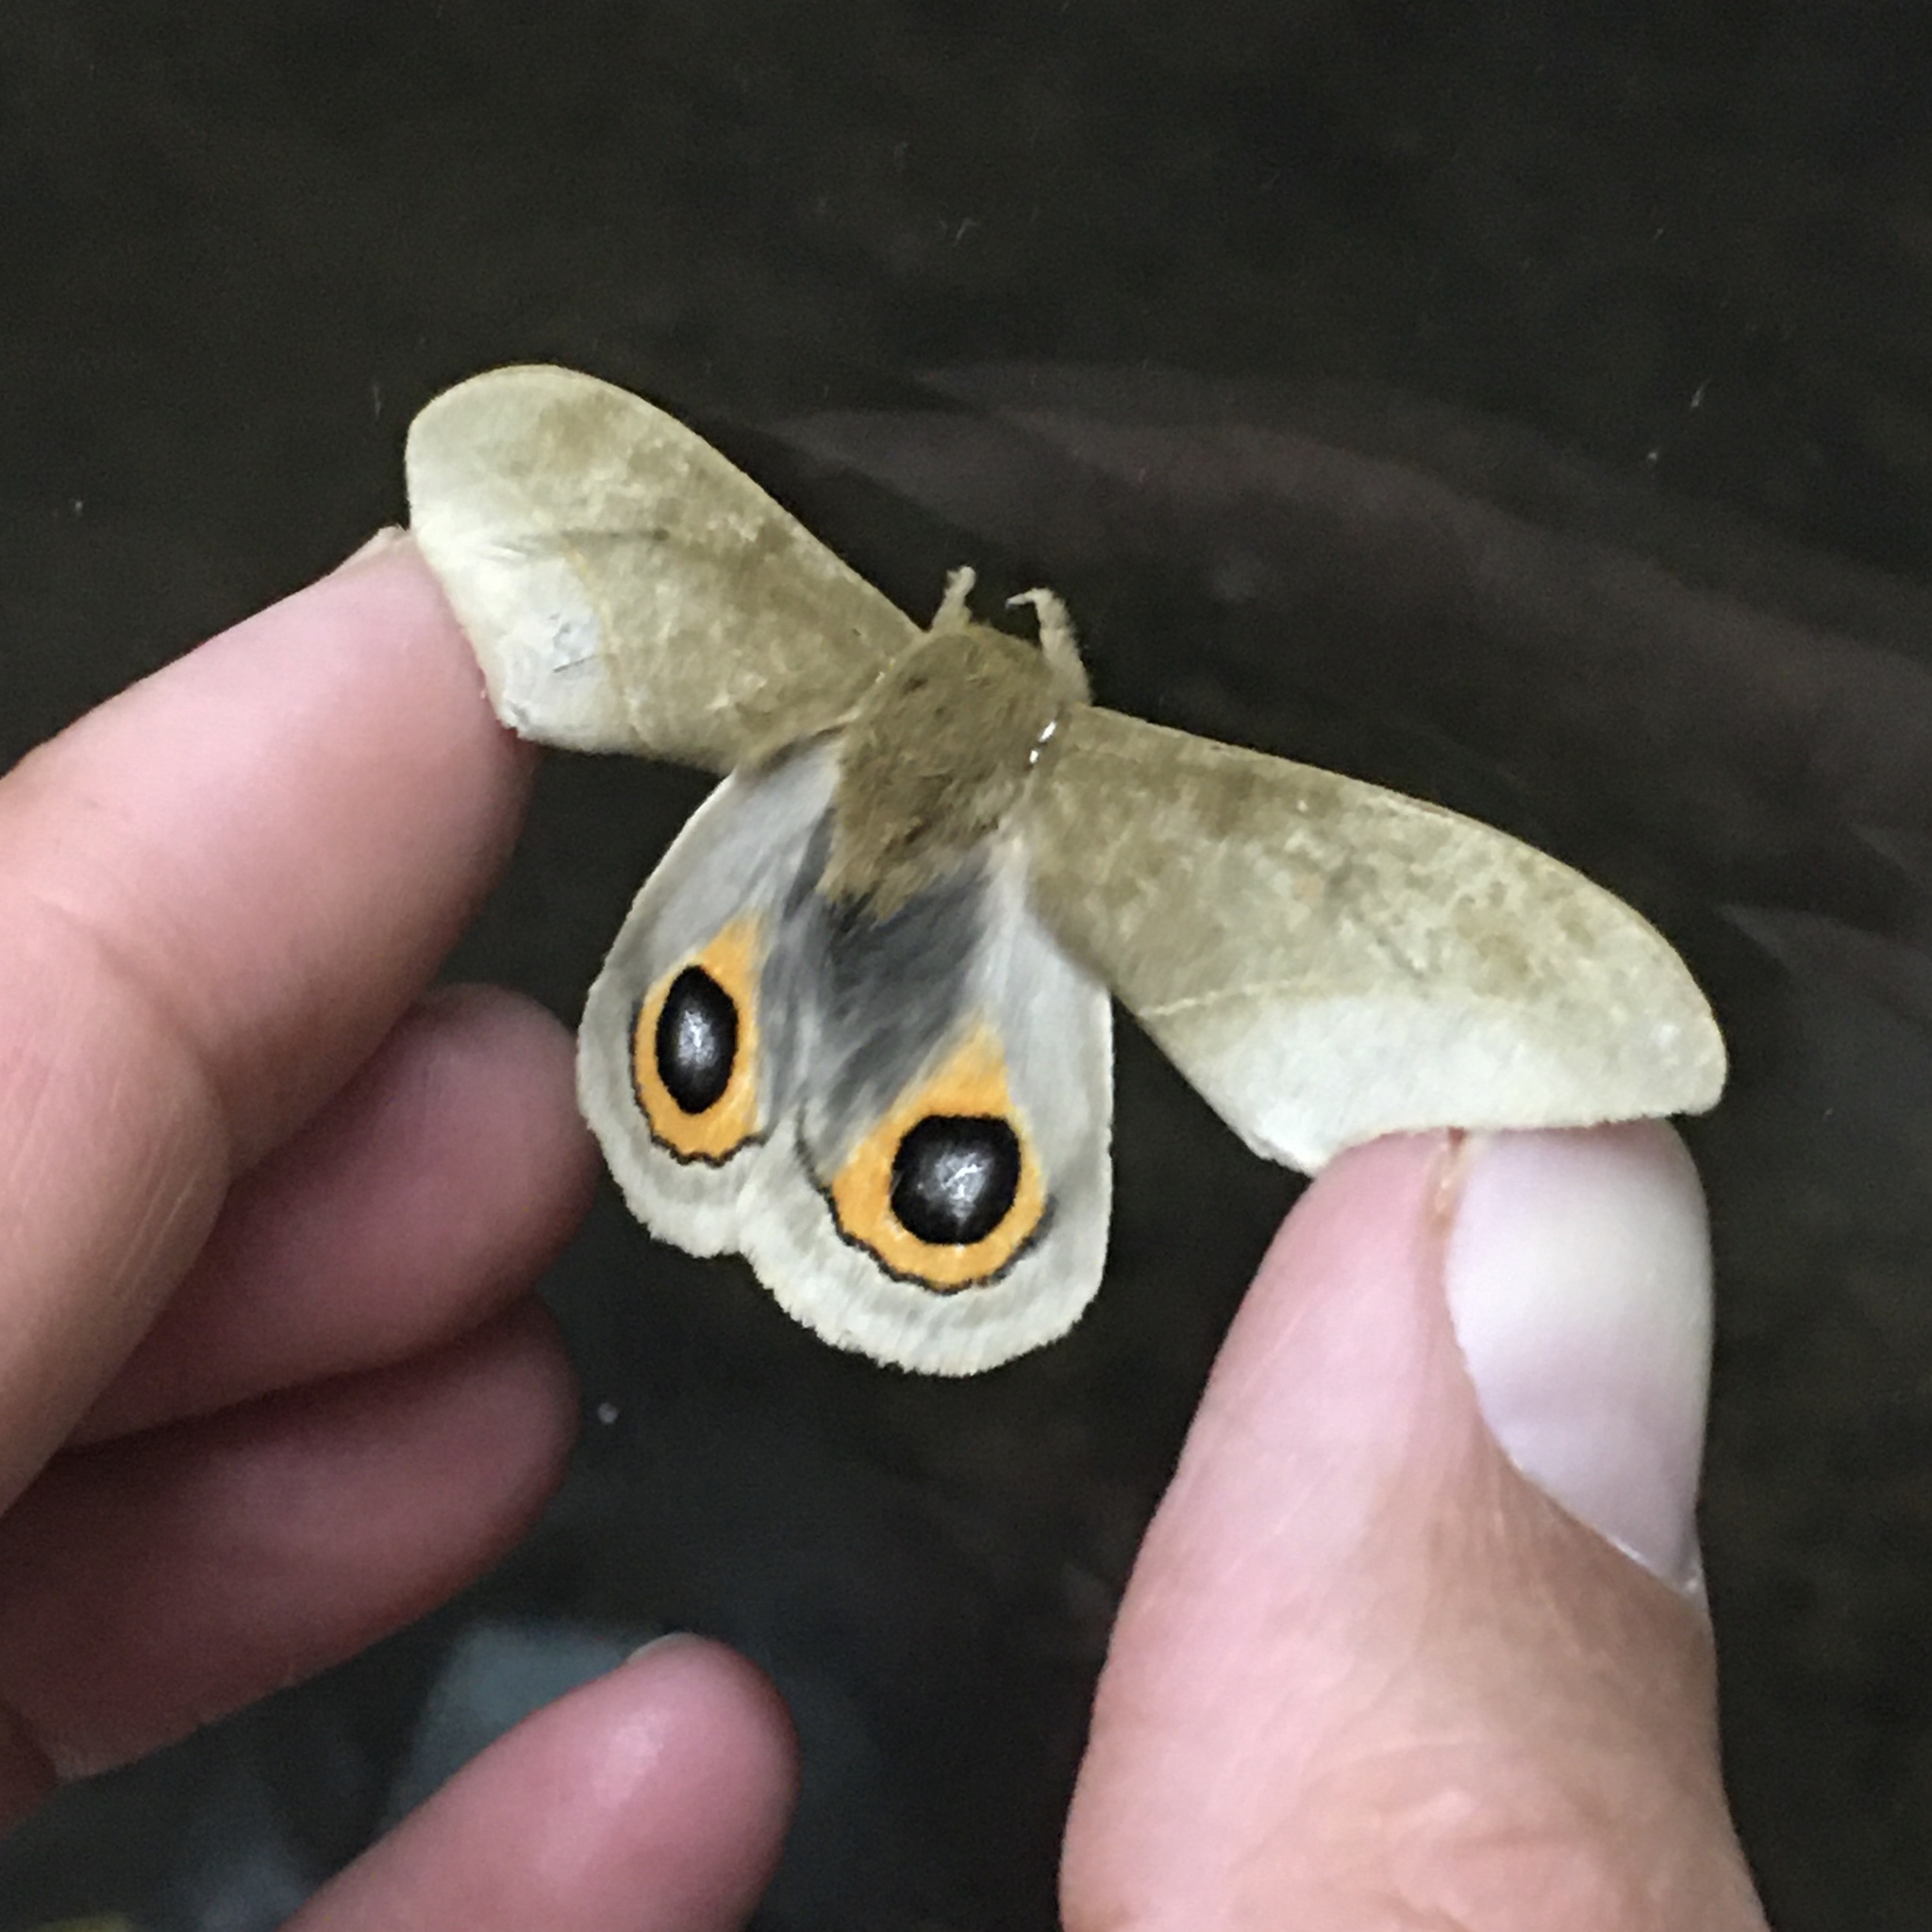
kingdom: Animalia
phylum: Arthropoda
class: Insecta
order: Lepidoptera
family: Saturniidae
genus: Automeris
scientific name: Automeris naranja
